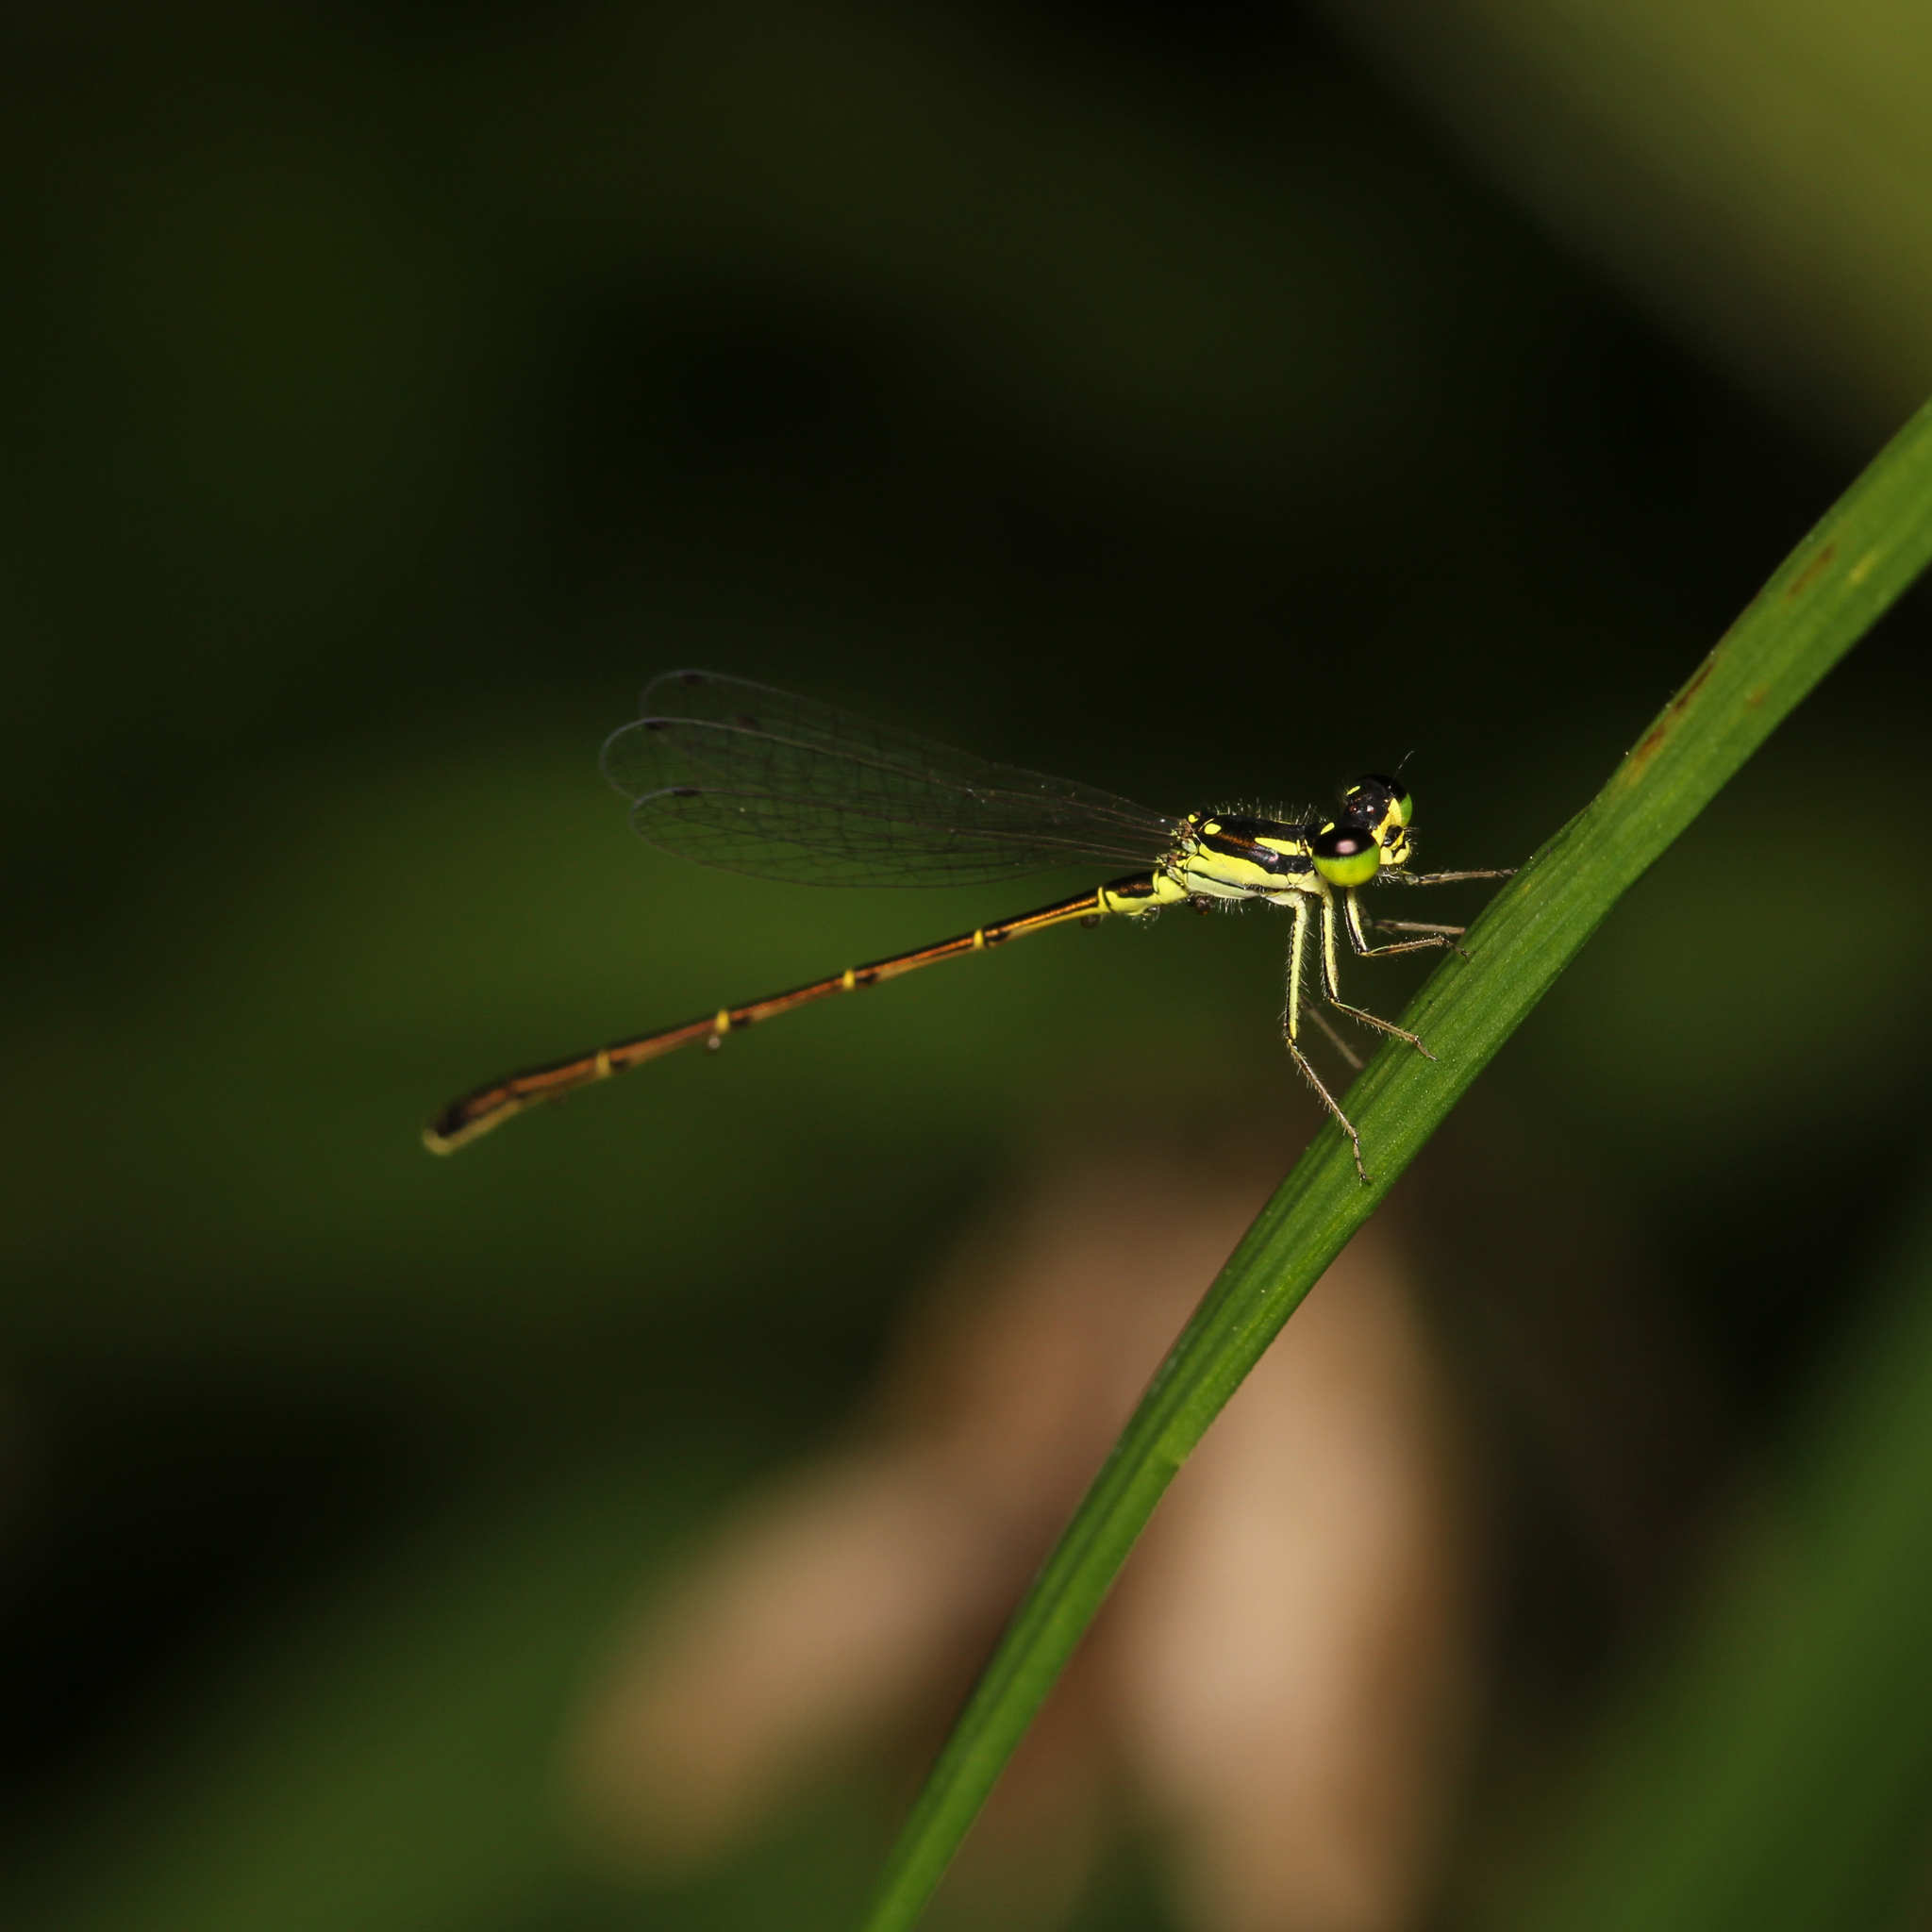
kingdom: Animalia
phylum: Arthropoda
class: Insecta
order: Odonata
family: Coenagrionidae
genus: Ischnura
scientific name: Ischnura posita
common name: Fragile forktail
